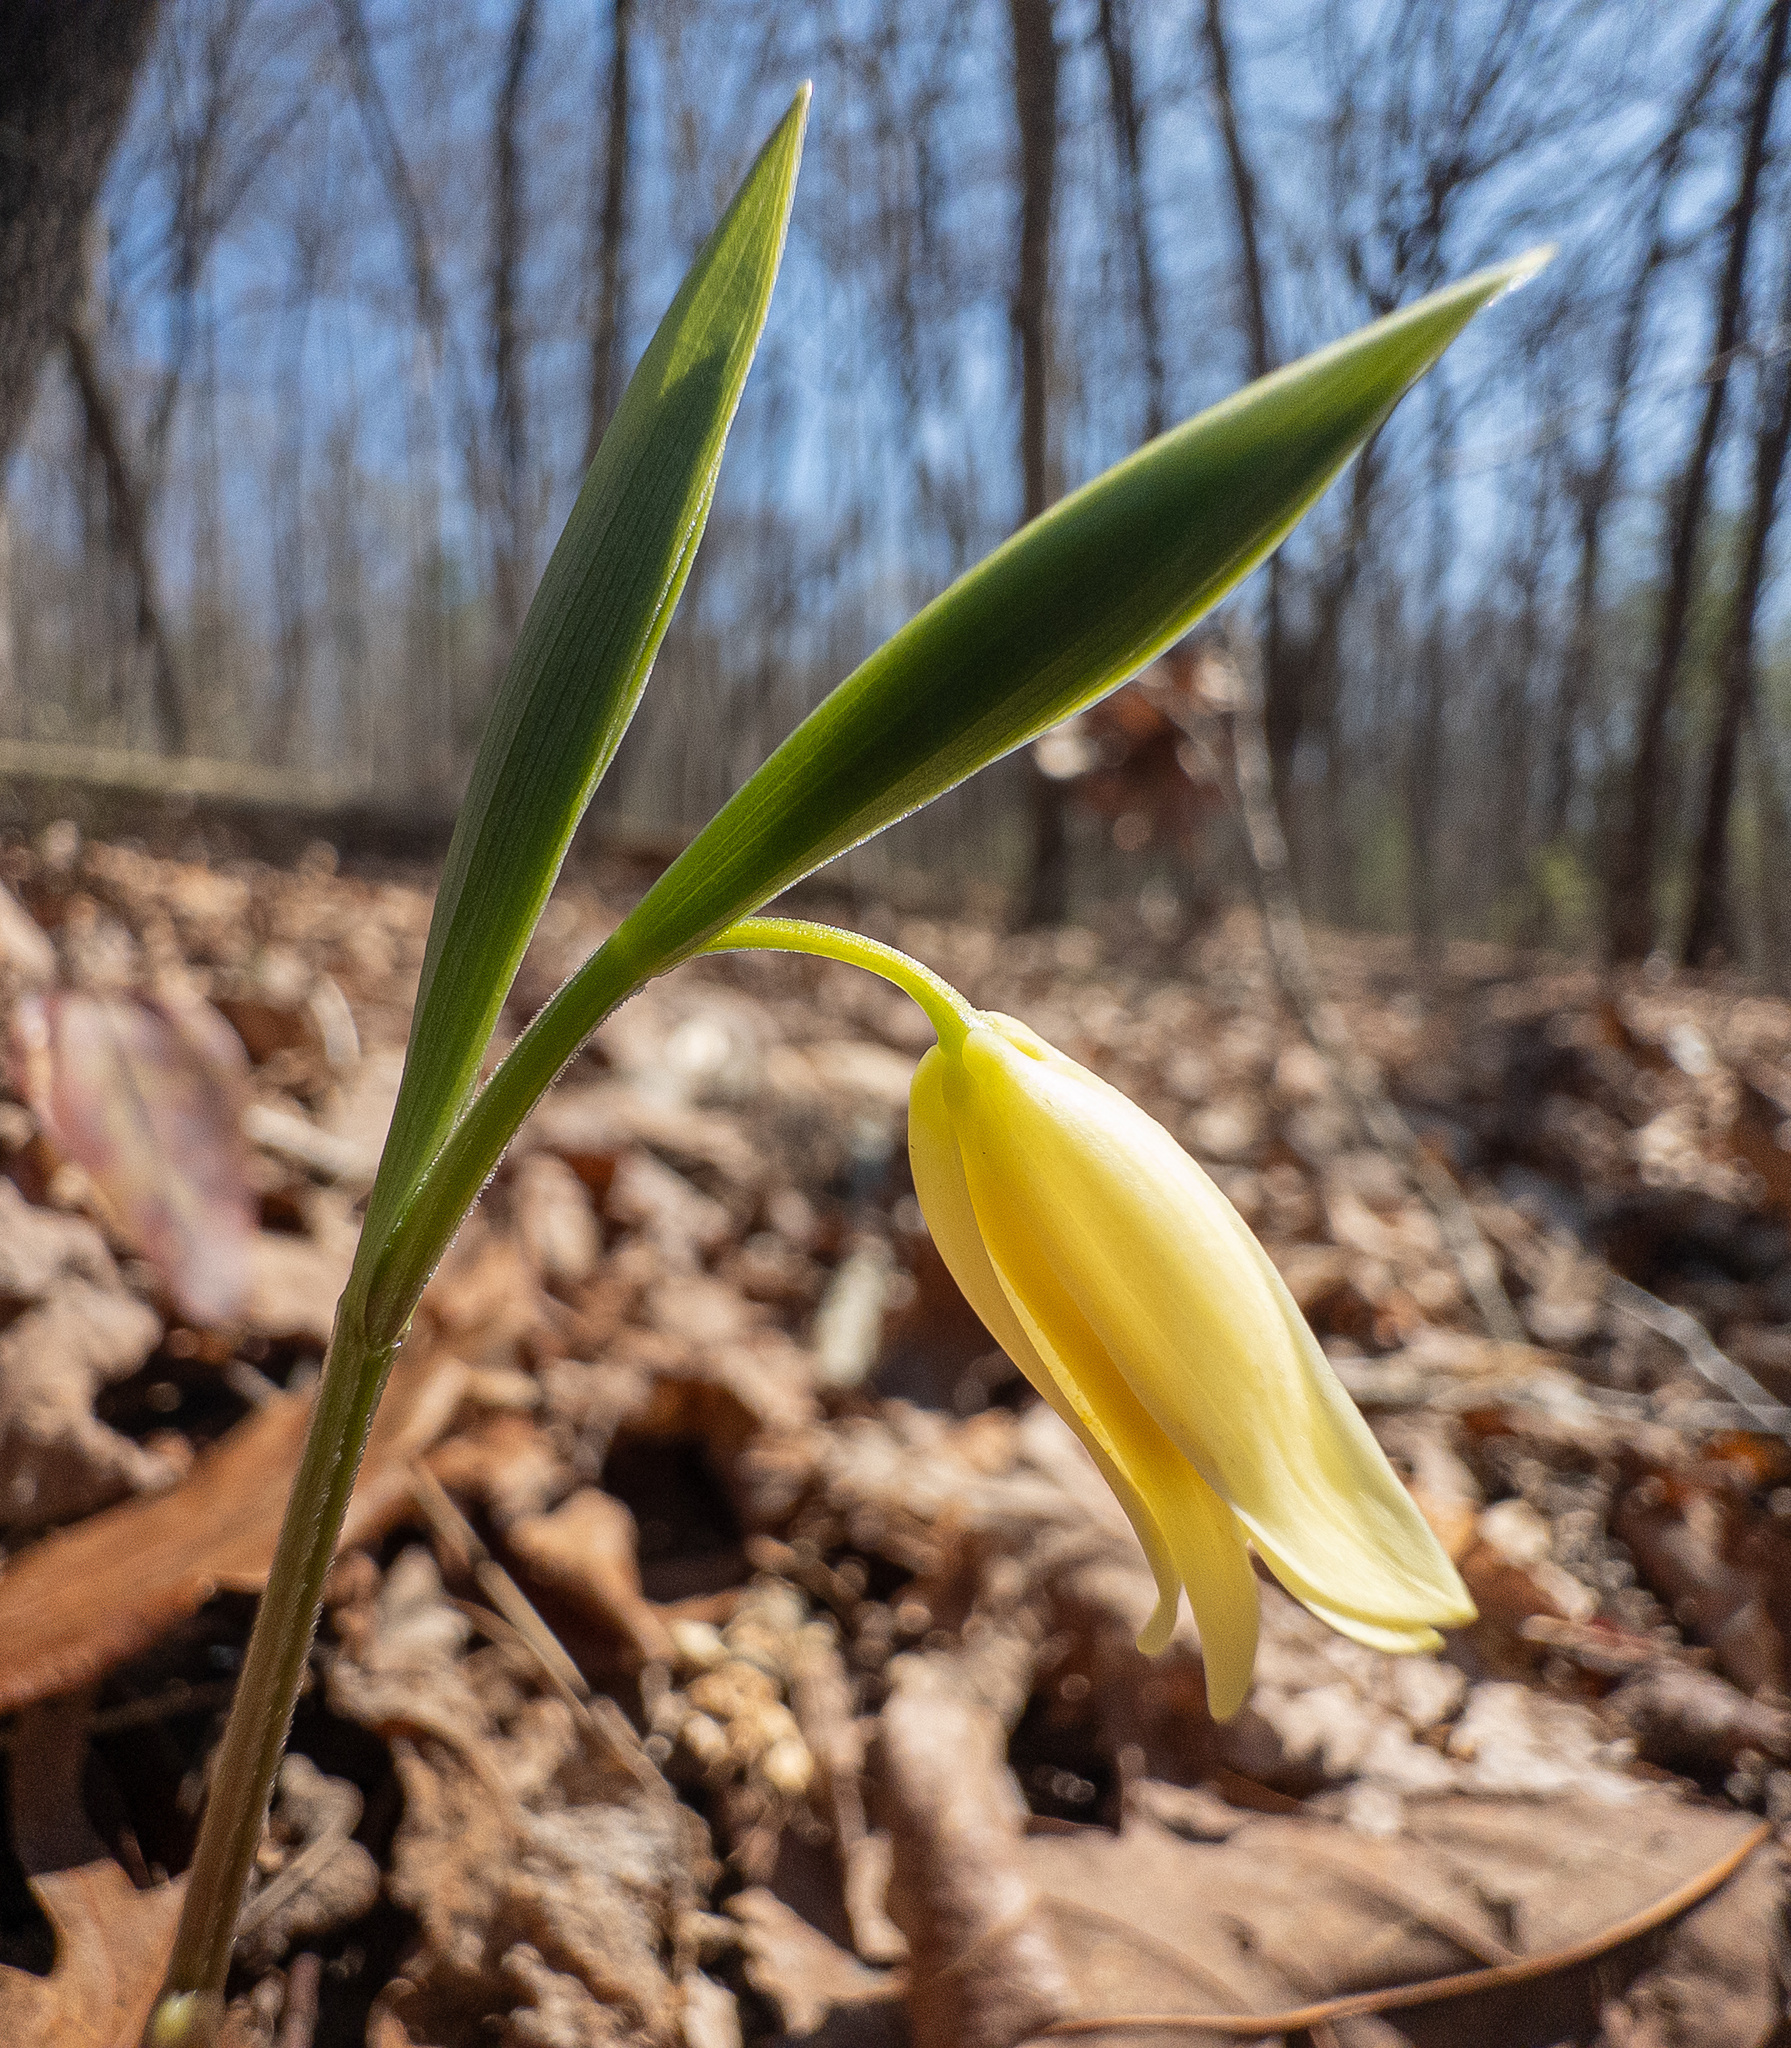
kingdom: Plantae
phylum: Tracheophyta
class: Liliopsida
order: Liliales
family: Colchicaceae
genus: Uvularia
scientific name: Uvularia puberula
